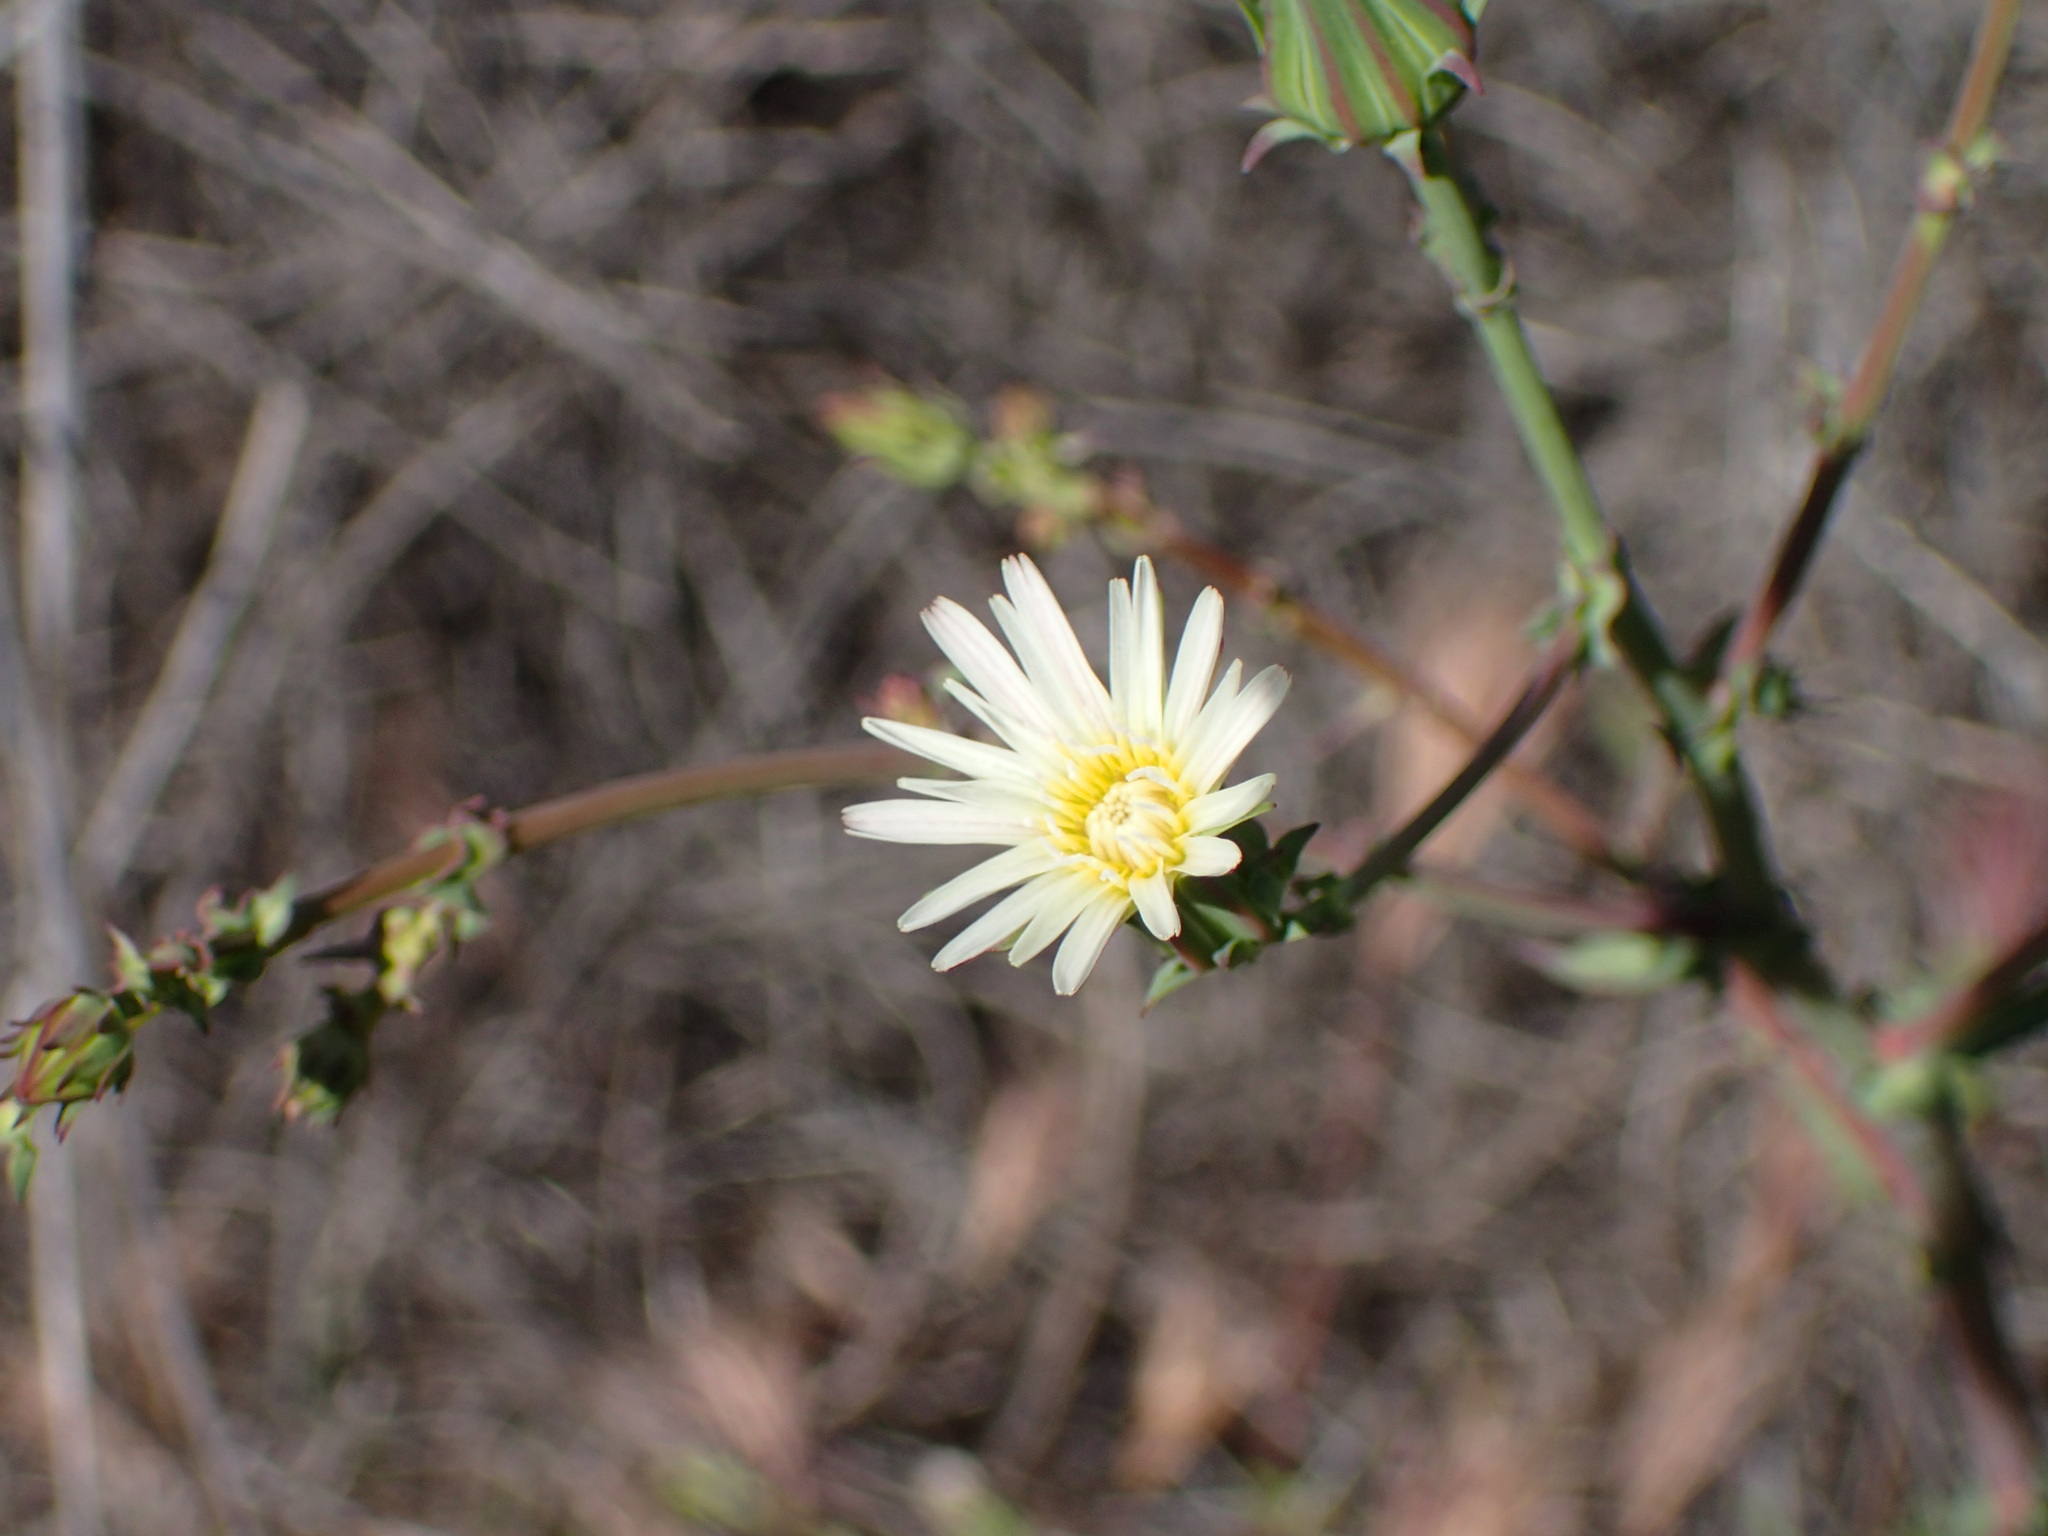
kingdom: Plantae
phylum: Tracheophyta
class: Magnoliopsida
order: Asterales
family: Asteraceae
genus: Rafinesquia
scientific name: Rafinesquia californica
